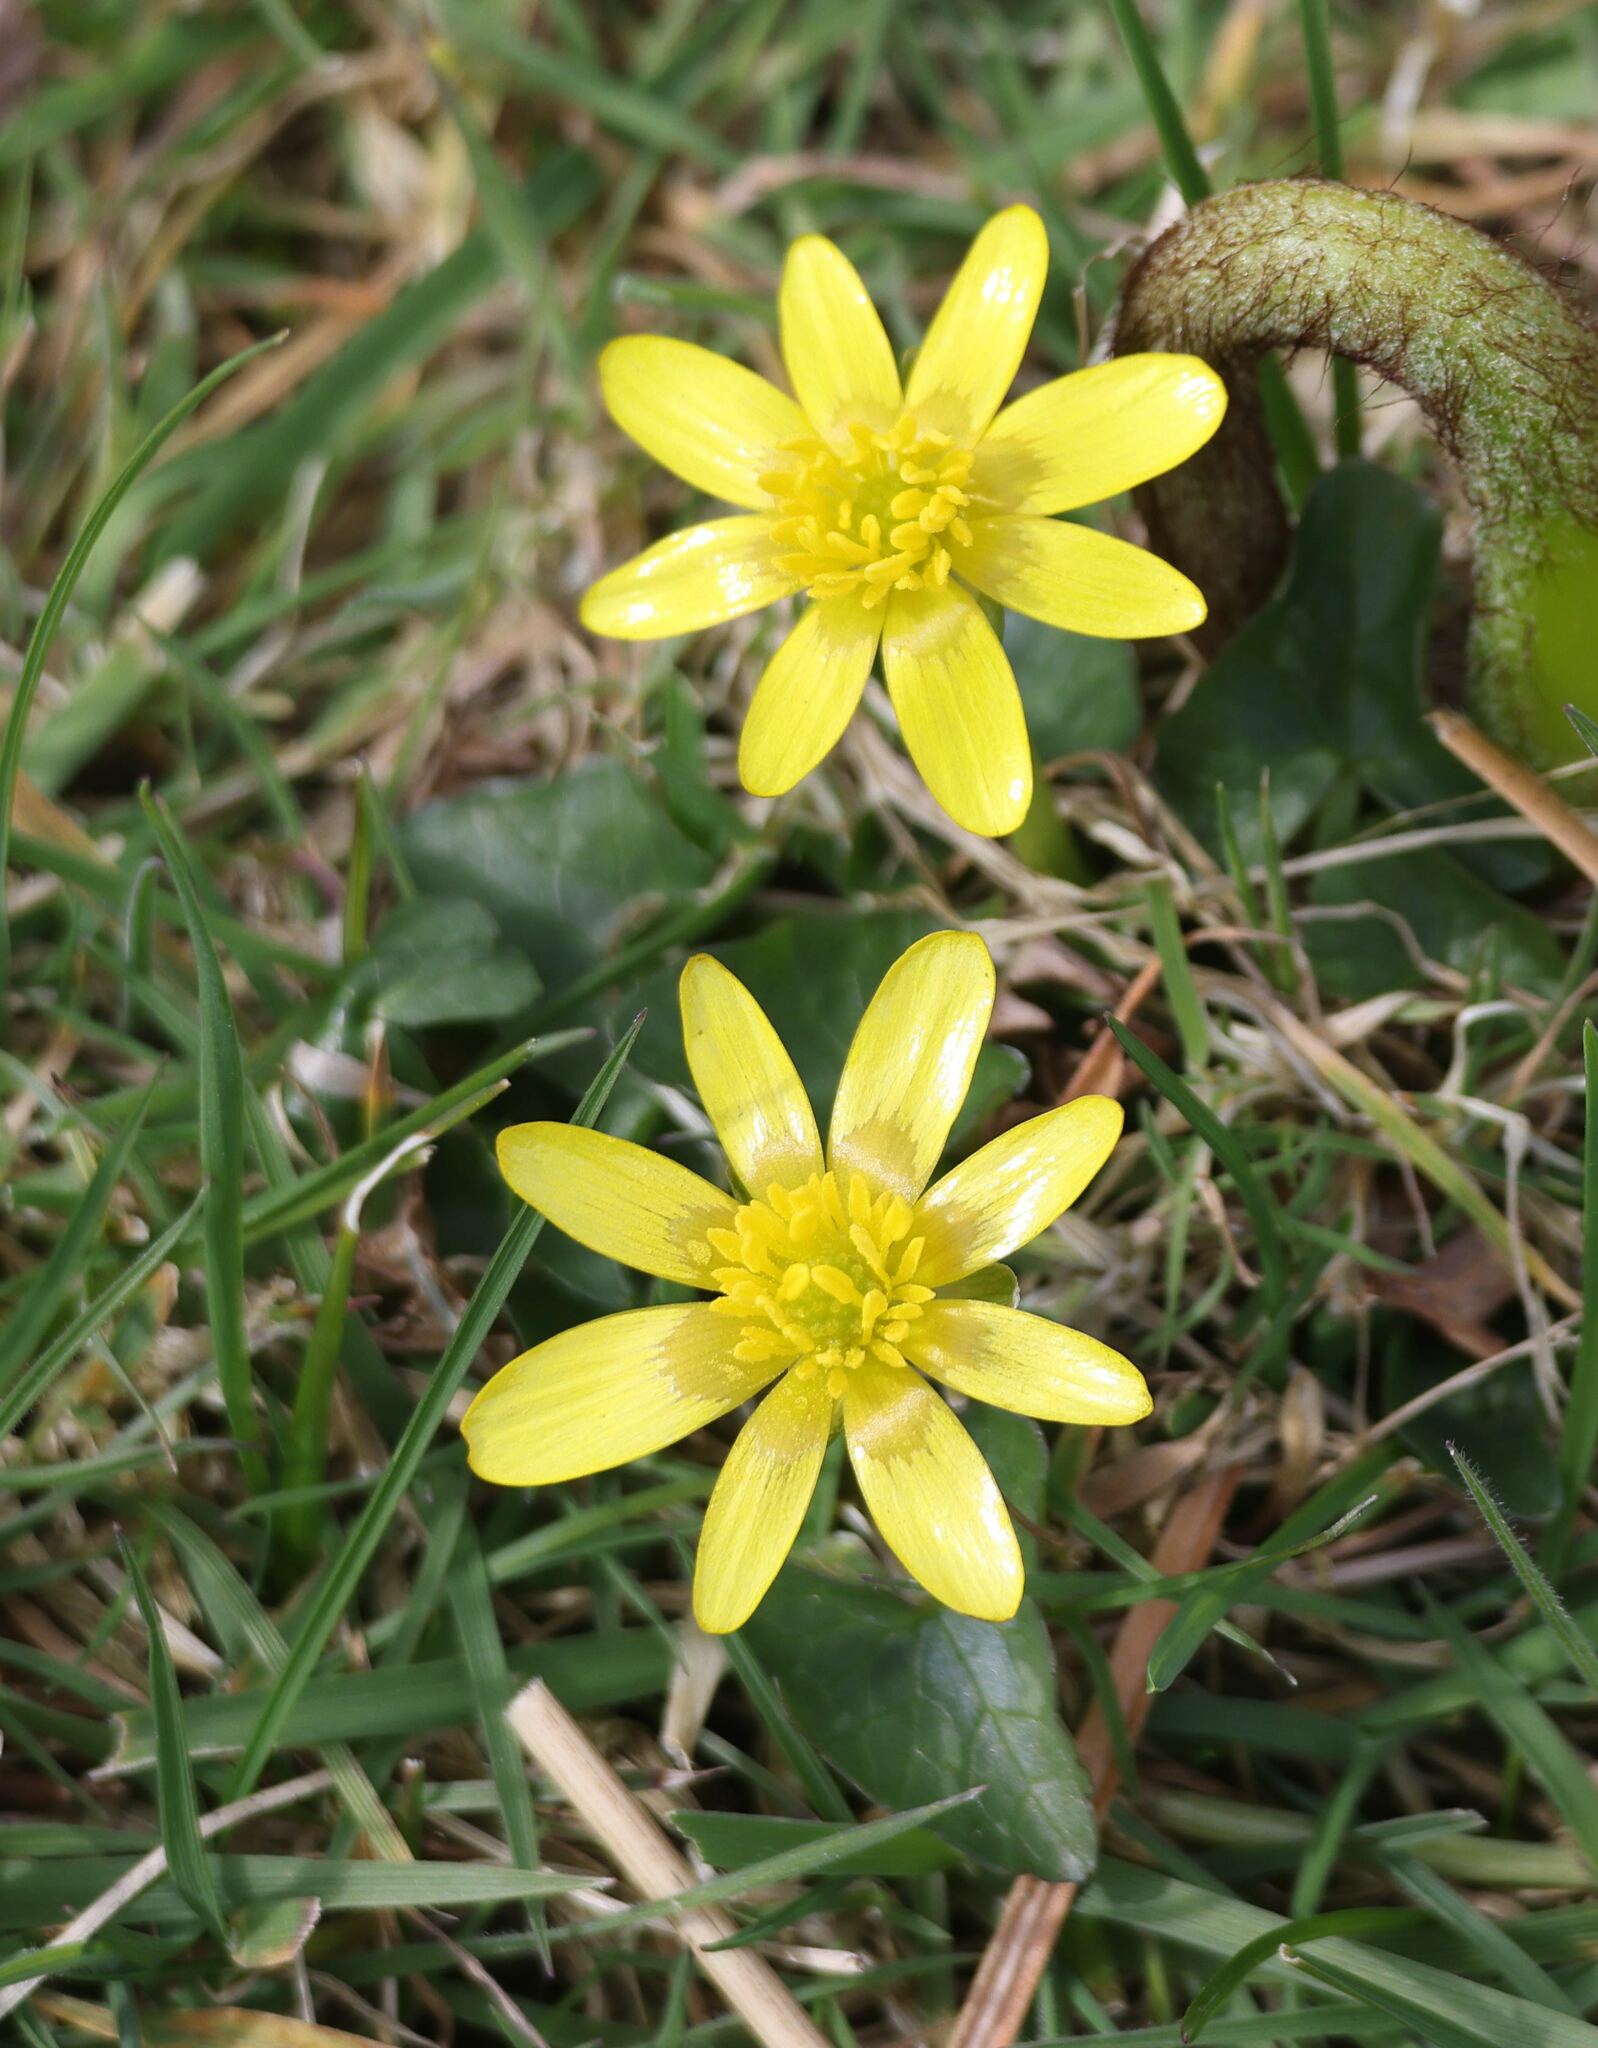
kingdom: Plantae
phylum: Tracheophyta
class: Magnoliopsida
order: Ranunculales
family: Ranunculaceae
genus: Ficaria
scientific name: Ficaria verna
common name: Lesser celandine
